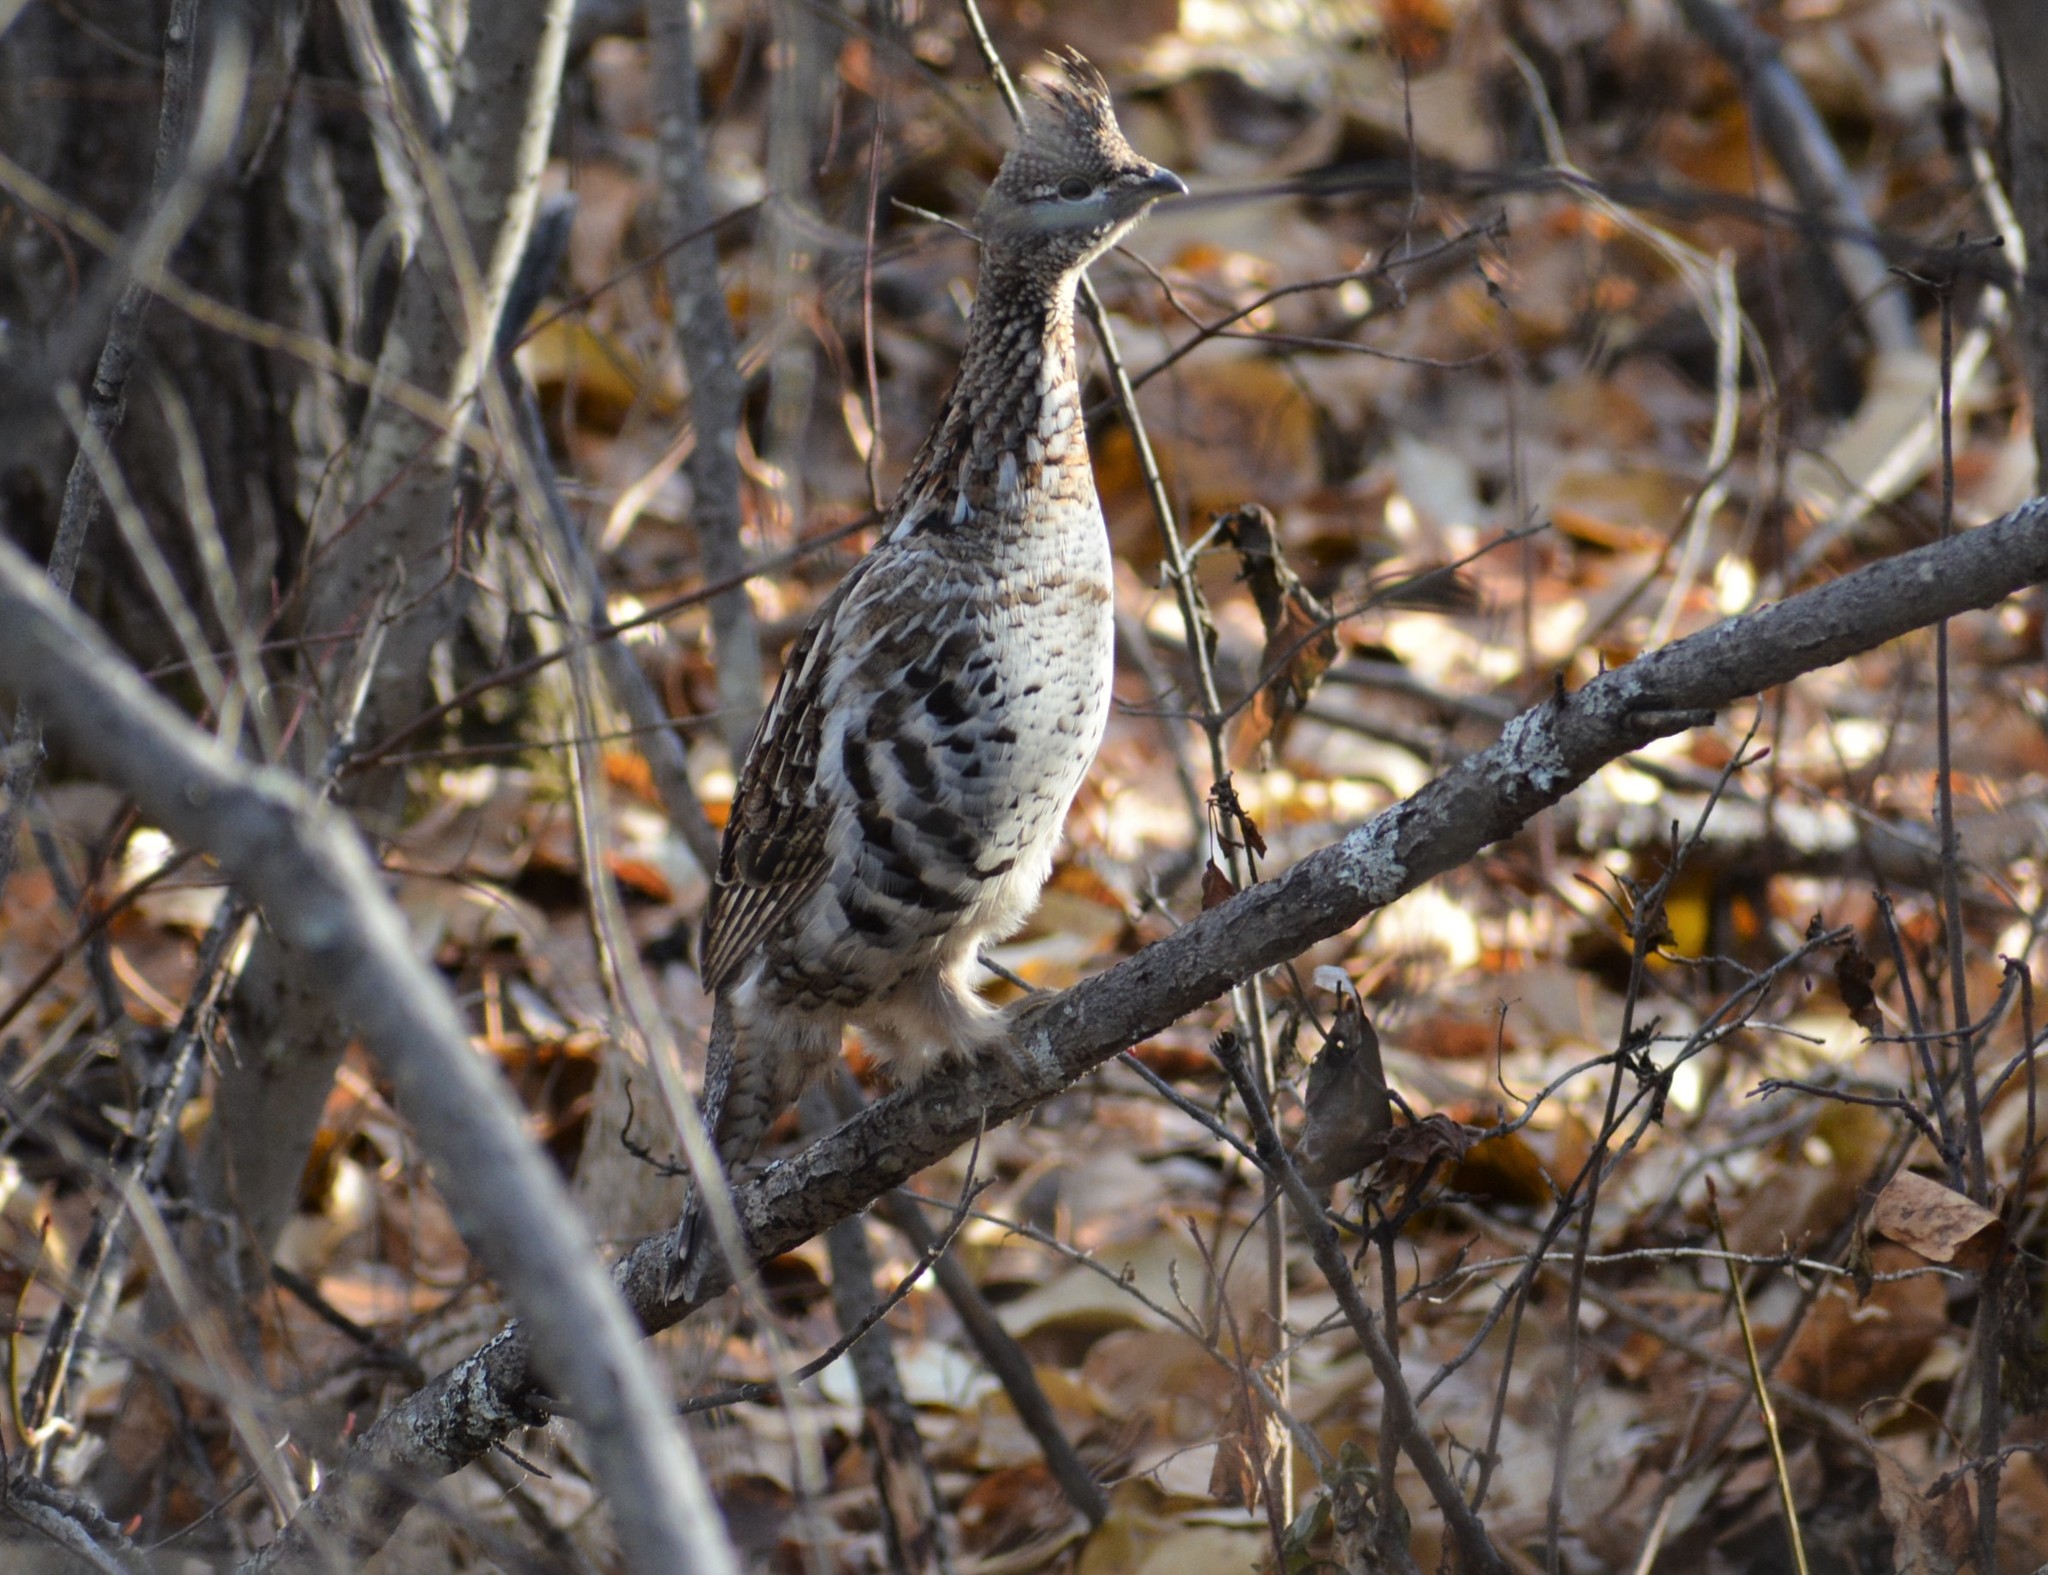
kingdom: Animalia
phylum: Chordata
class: Aves
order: Galliformes
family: Phasianidae
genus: Bonasa
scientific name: Bonasa umbellus
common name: Ruffed grouse
